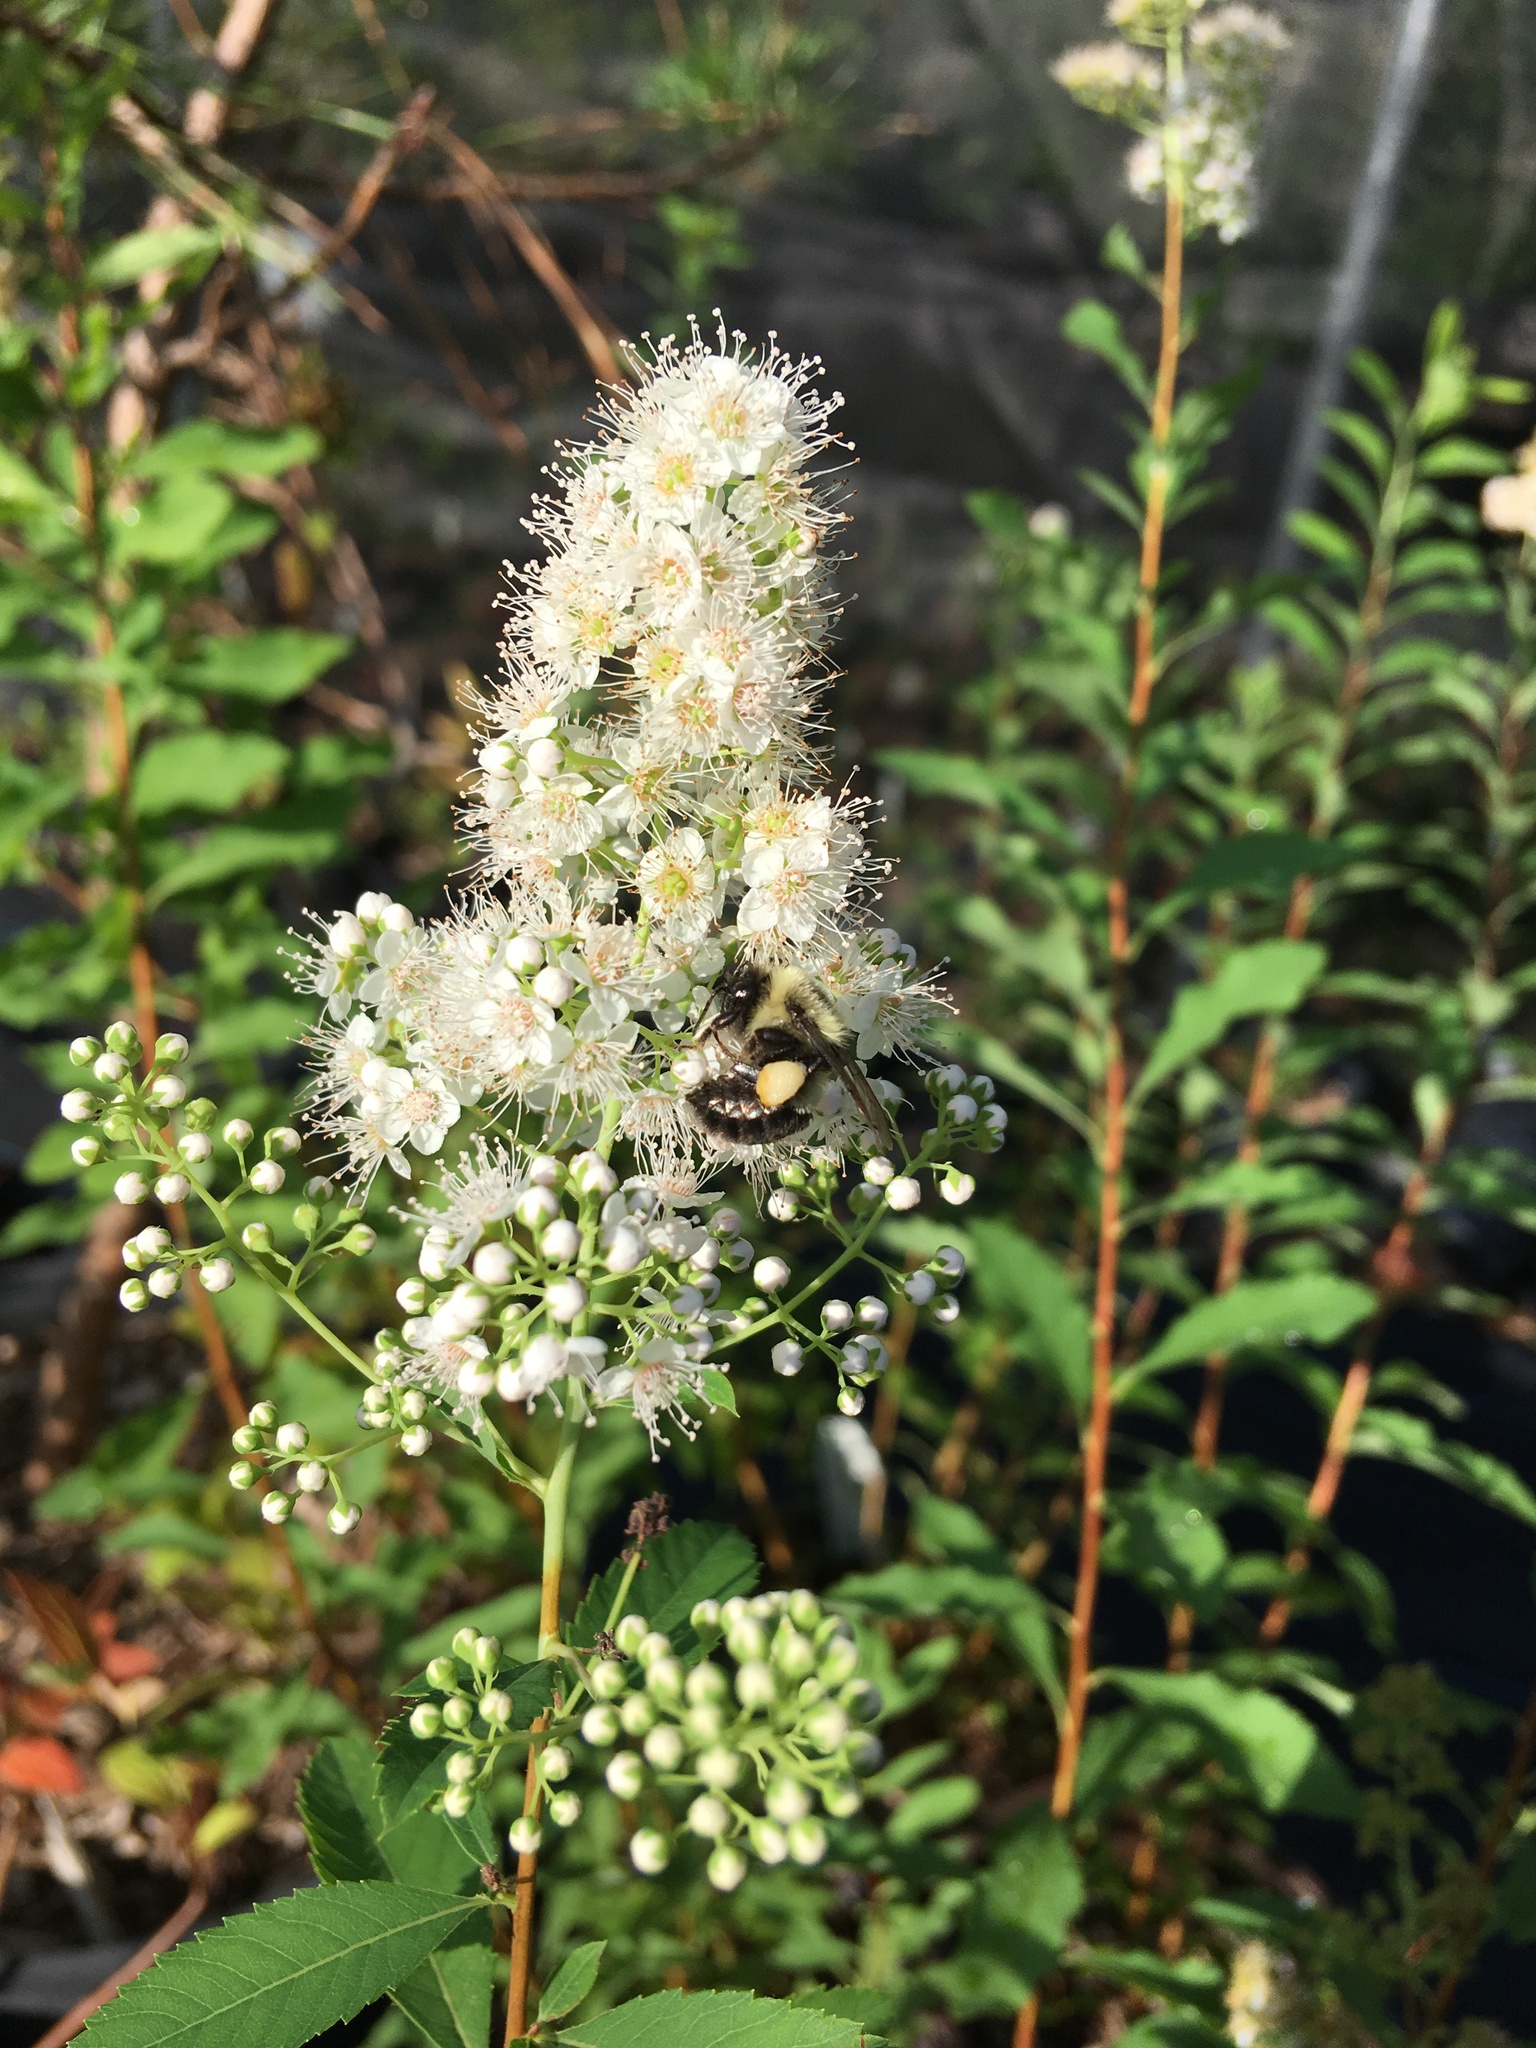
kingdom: Animalia
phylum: Arthropoda
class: Insecta
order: Hymenoptera
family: Apidae
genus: Bombus
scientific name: Bombus impatiens
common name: Common eastern bumble bee
